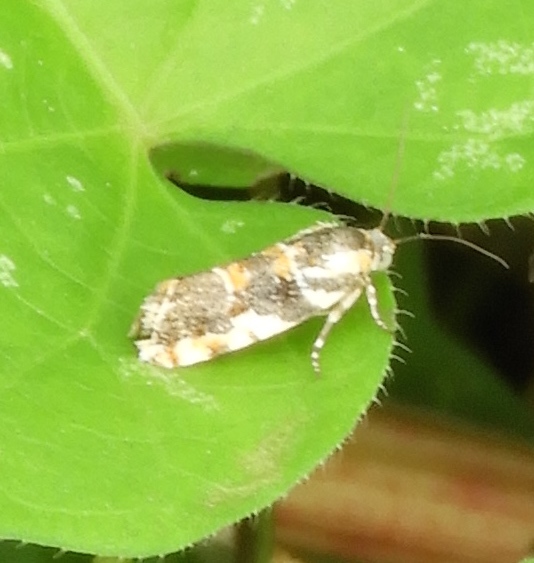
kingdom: Animalia
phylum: Arthropoda
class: Insecta
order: Lepidoptera
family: Noctuidae
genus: Spragueia
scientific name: Spragueia
